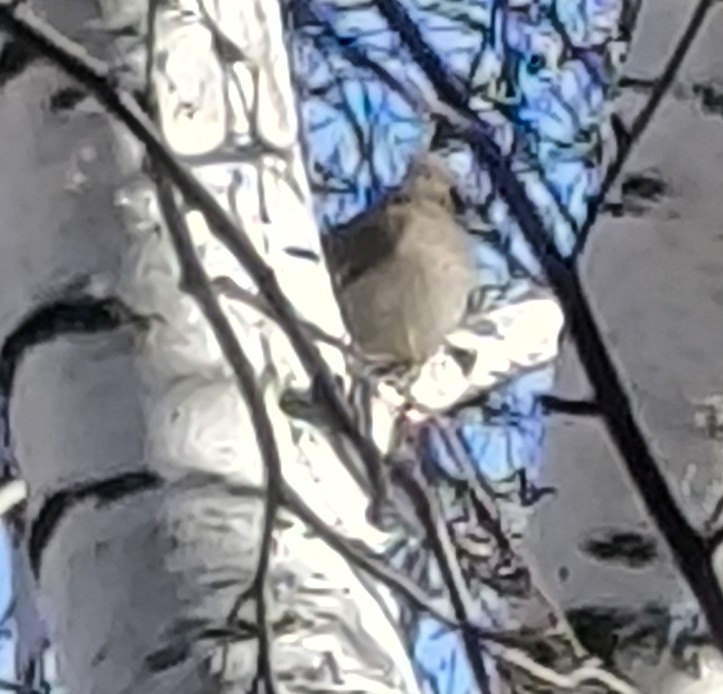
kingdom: Animalia
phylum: Chordata
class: Aves
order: Passeriformes
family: Bombycillidae
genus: Bombycilla
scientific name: Bombycilla garrulus
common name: Bohemian waxwing
